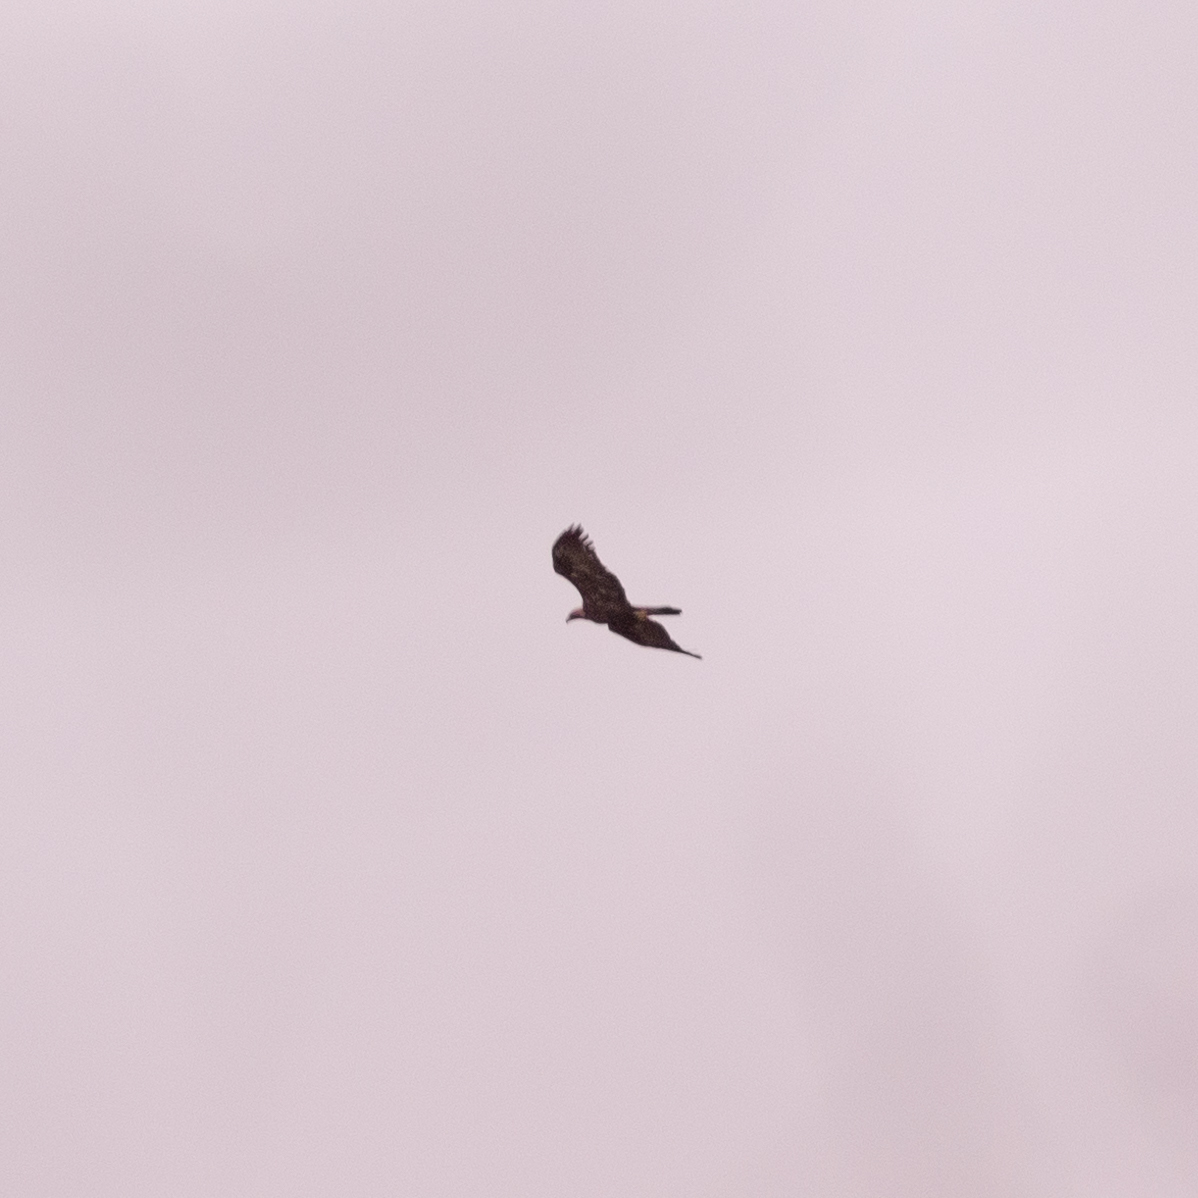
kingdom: Animalia
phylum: Chordata
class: Aves
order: Accipitriformes
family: Accipitridae
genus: Aquila
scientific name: Aquila chrysaetos
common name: Golden eagle
